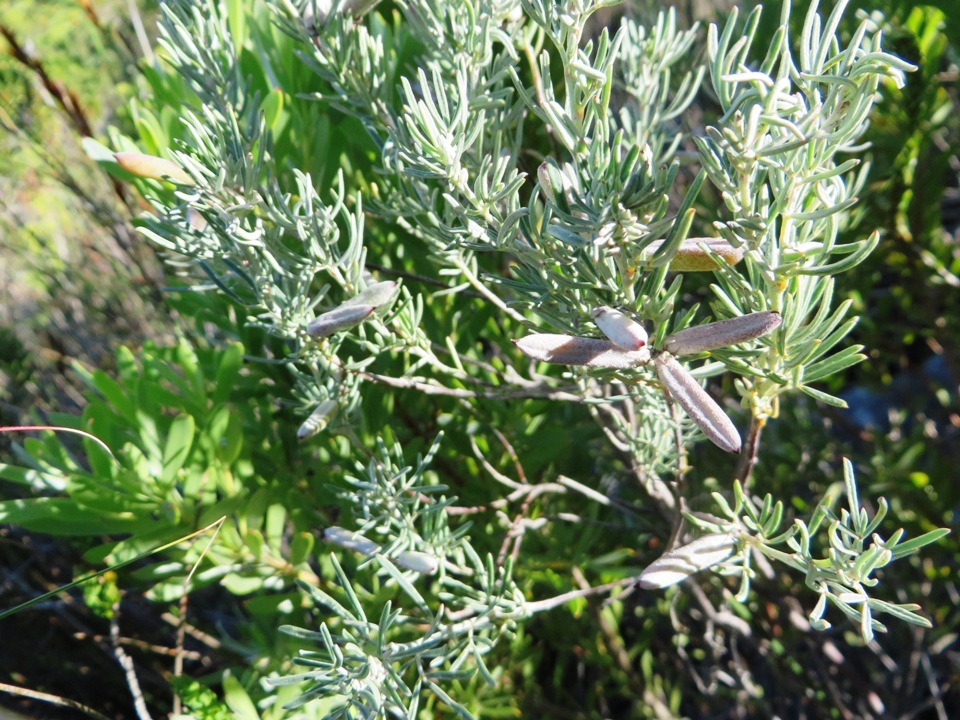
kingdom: Plantae
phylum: Tracheophyta
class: Magnoliopsida
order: Fabales
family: Fabaceae
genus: Indigofera
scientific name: Indigofera
